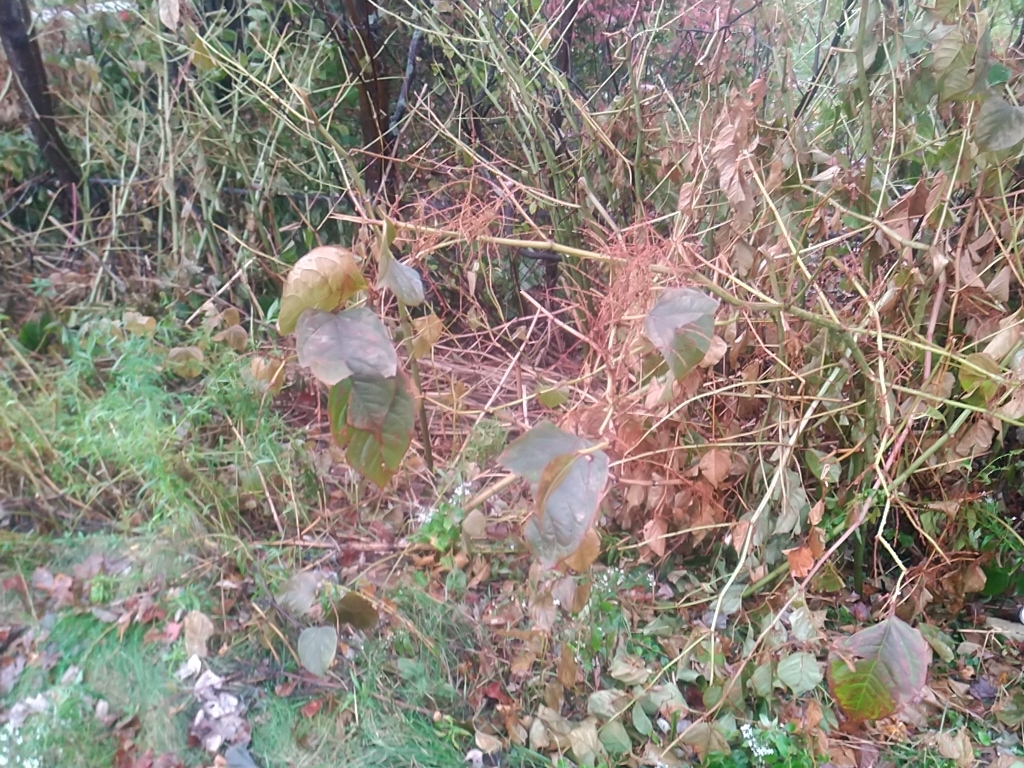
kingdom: Plantae
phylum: Tracheophyta
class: Magnoliopsida
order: Caryophyllales
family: Polygonaceae
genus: Reynoutria
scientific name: Reynoutria japonica
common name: Japanese knotweed
